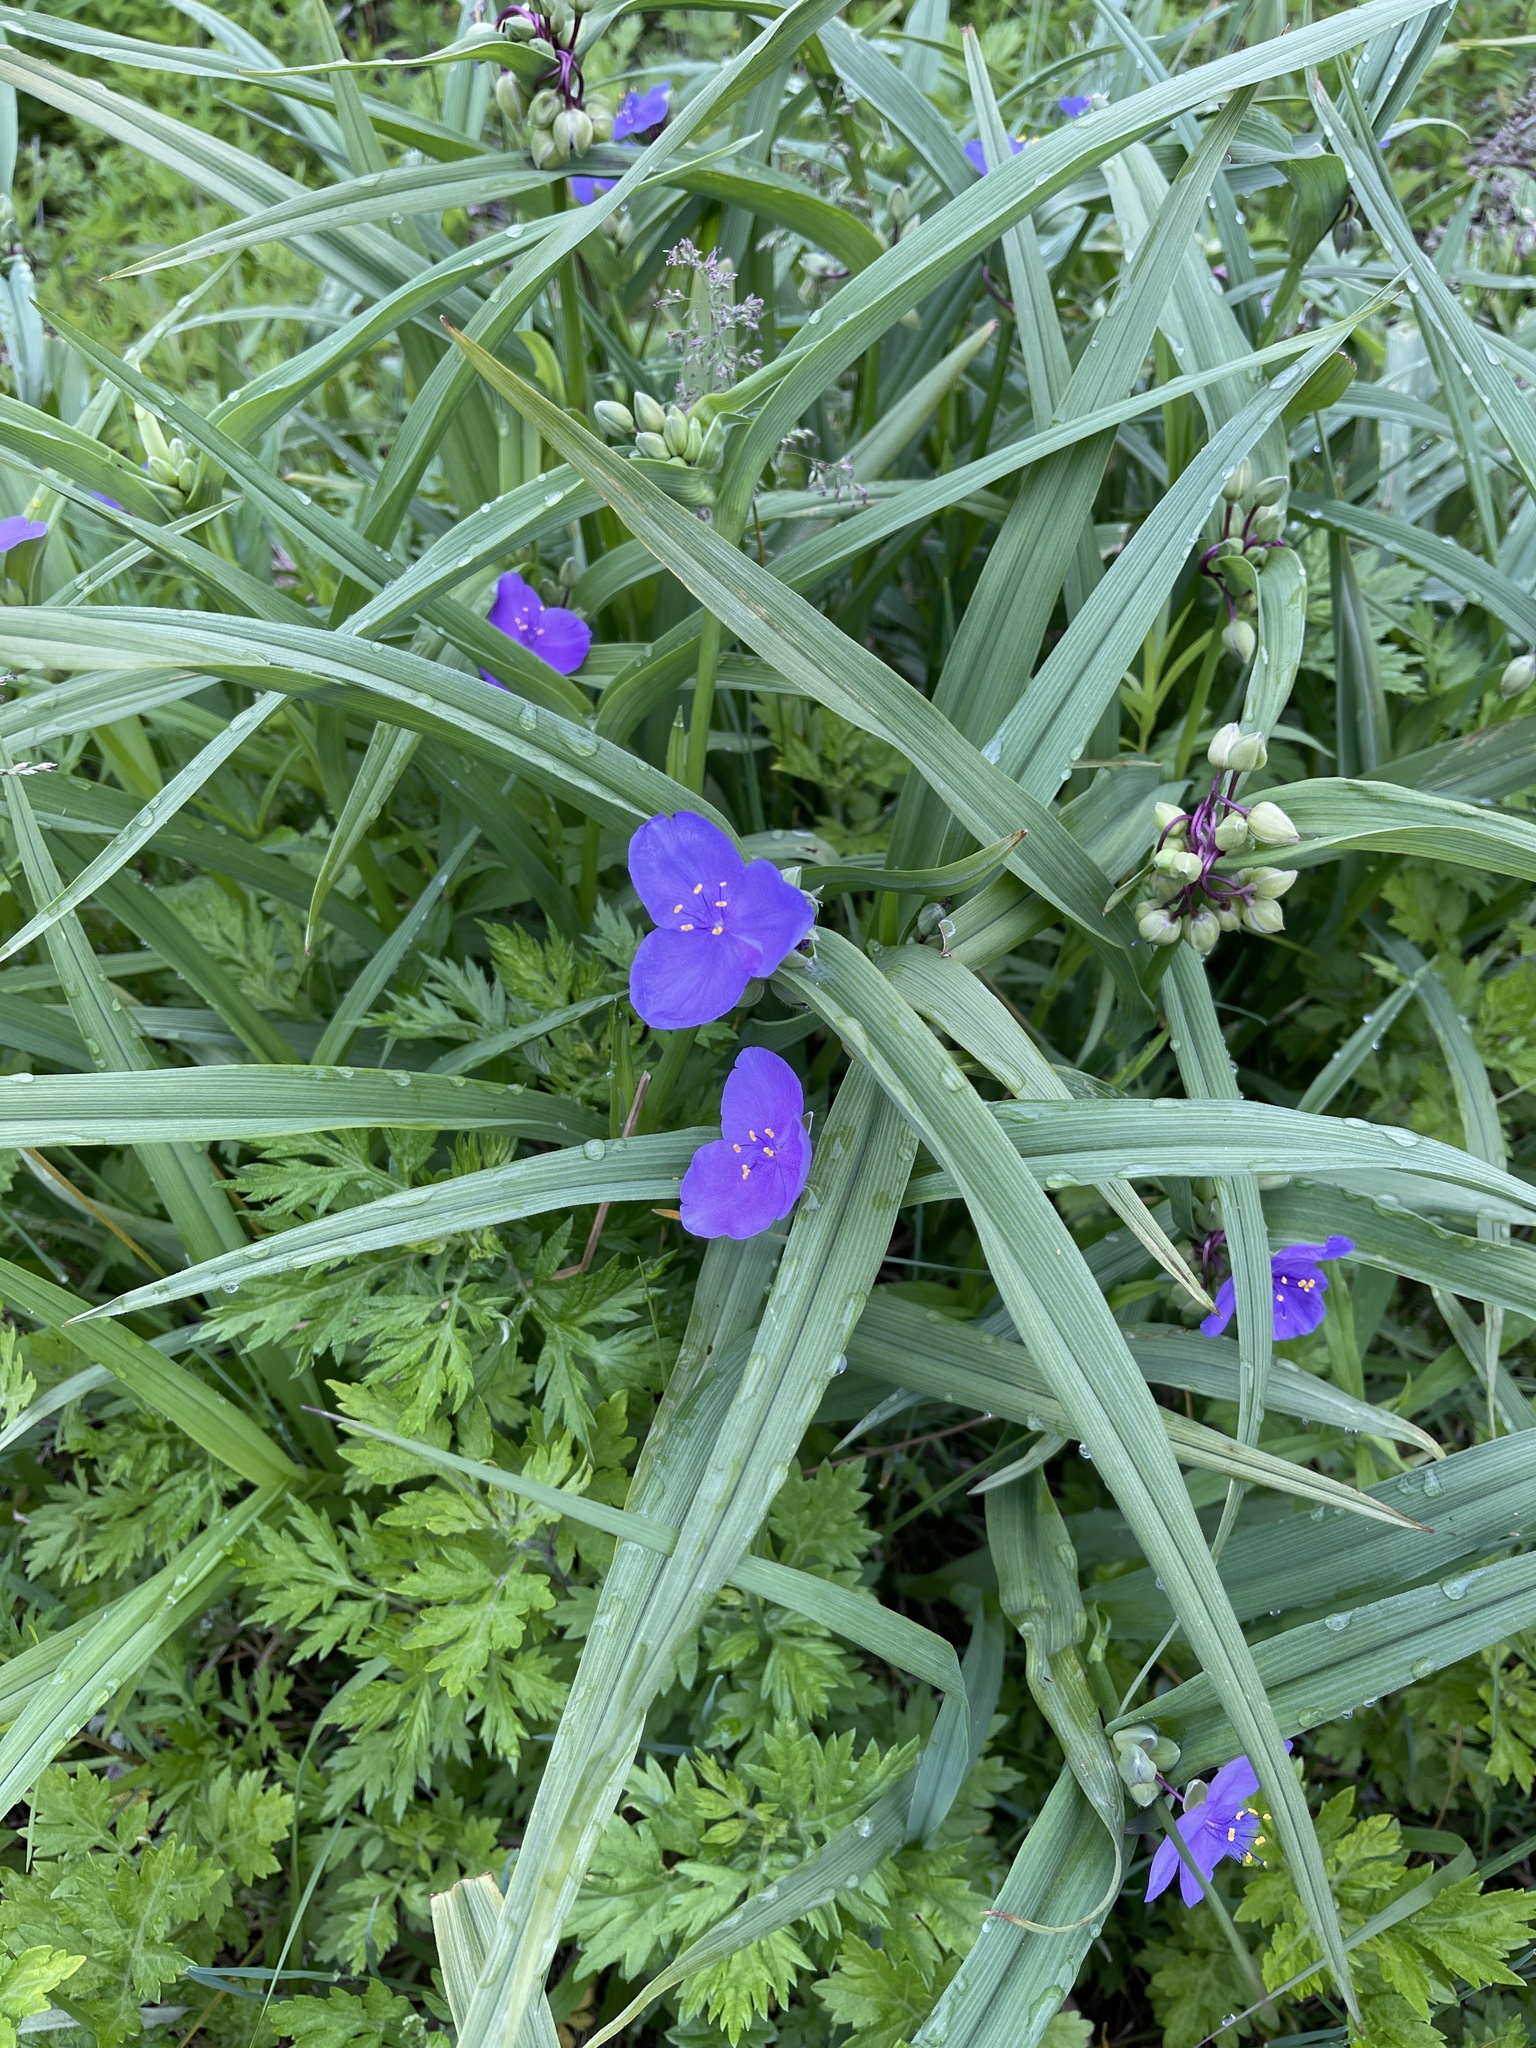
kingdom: Plantae
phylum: Tracheophyta
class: Liliopsida
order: Commelinales
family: Commelinaceae
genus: Tradescantia
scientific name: Tradescantia virginiana
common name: Spiderwort
